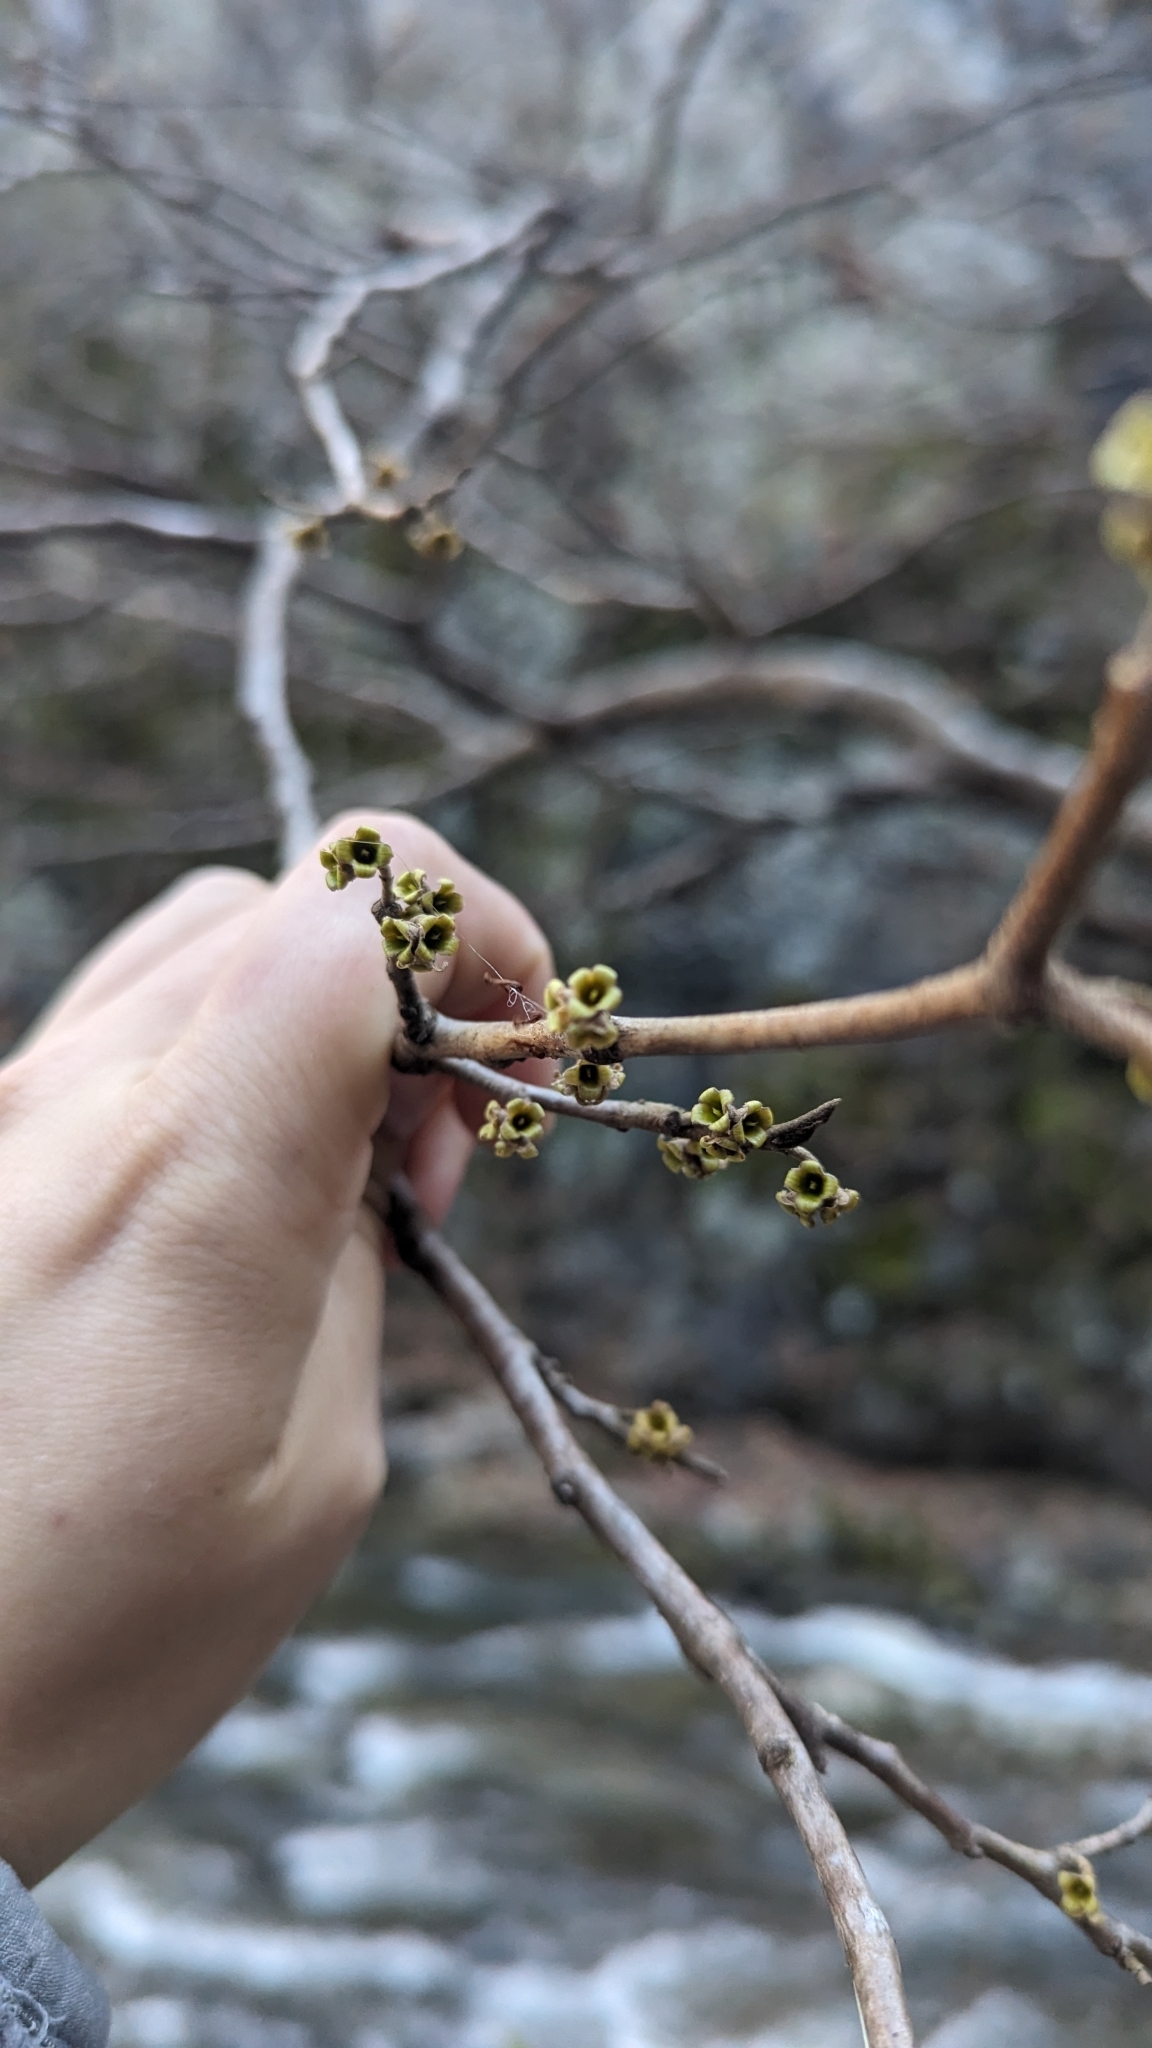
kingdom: Plantae
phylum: Tracheophyta
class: Magnoliopsida
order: Saxifragales
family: Hamamelidaceae
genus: Hamamelis
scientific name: Hamamelis virginiana
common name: Witch-hazel
